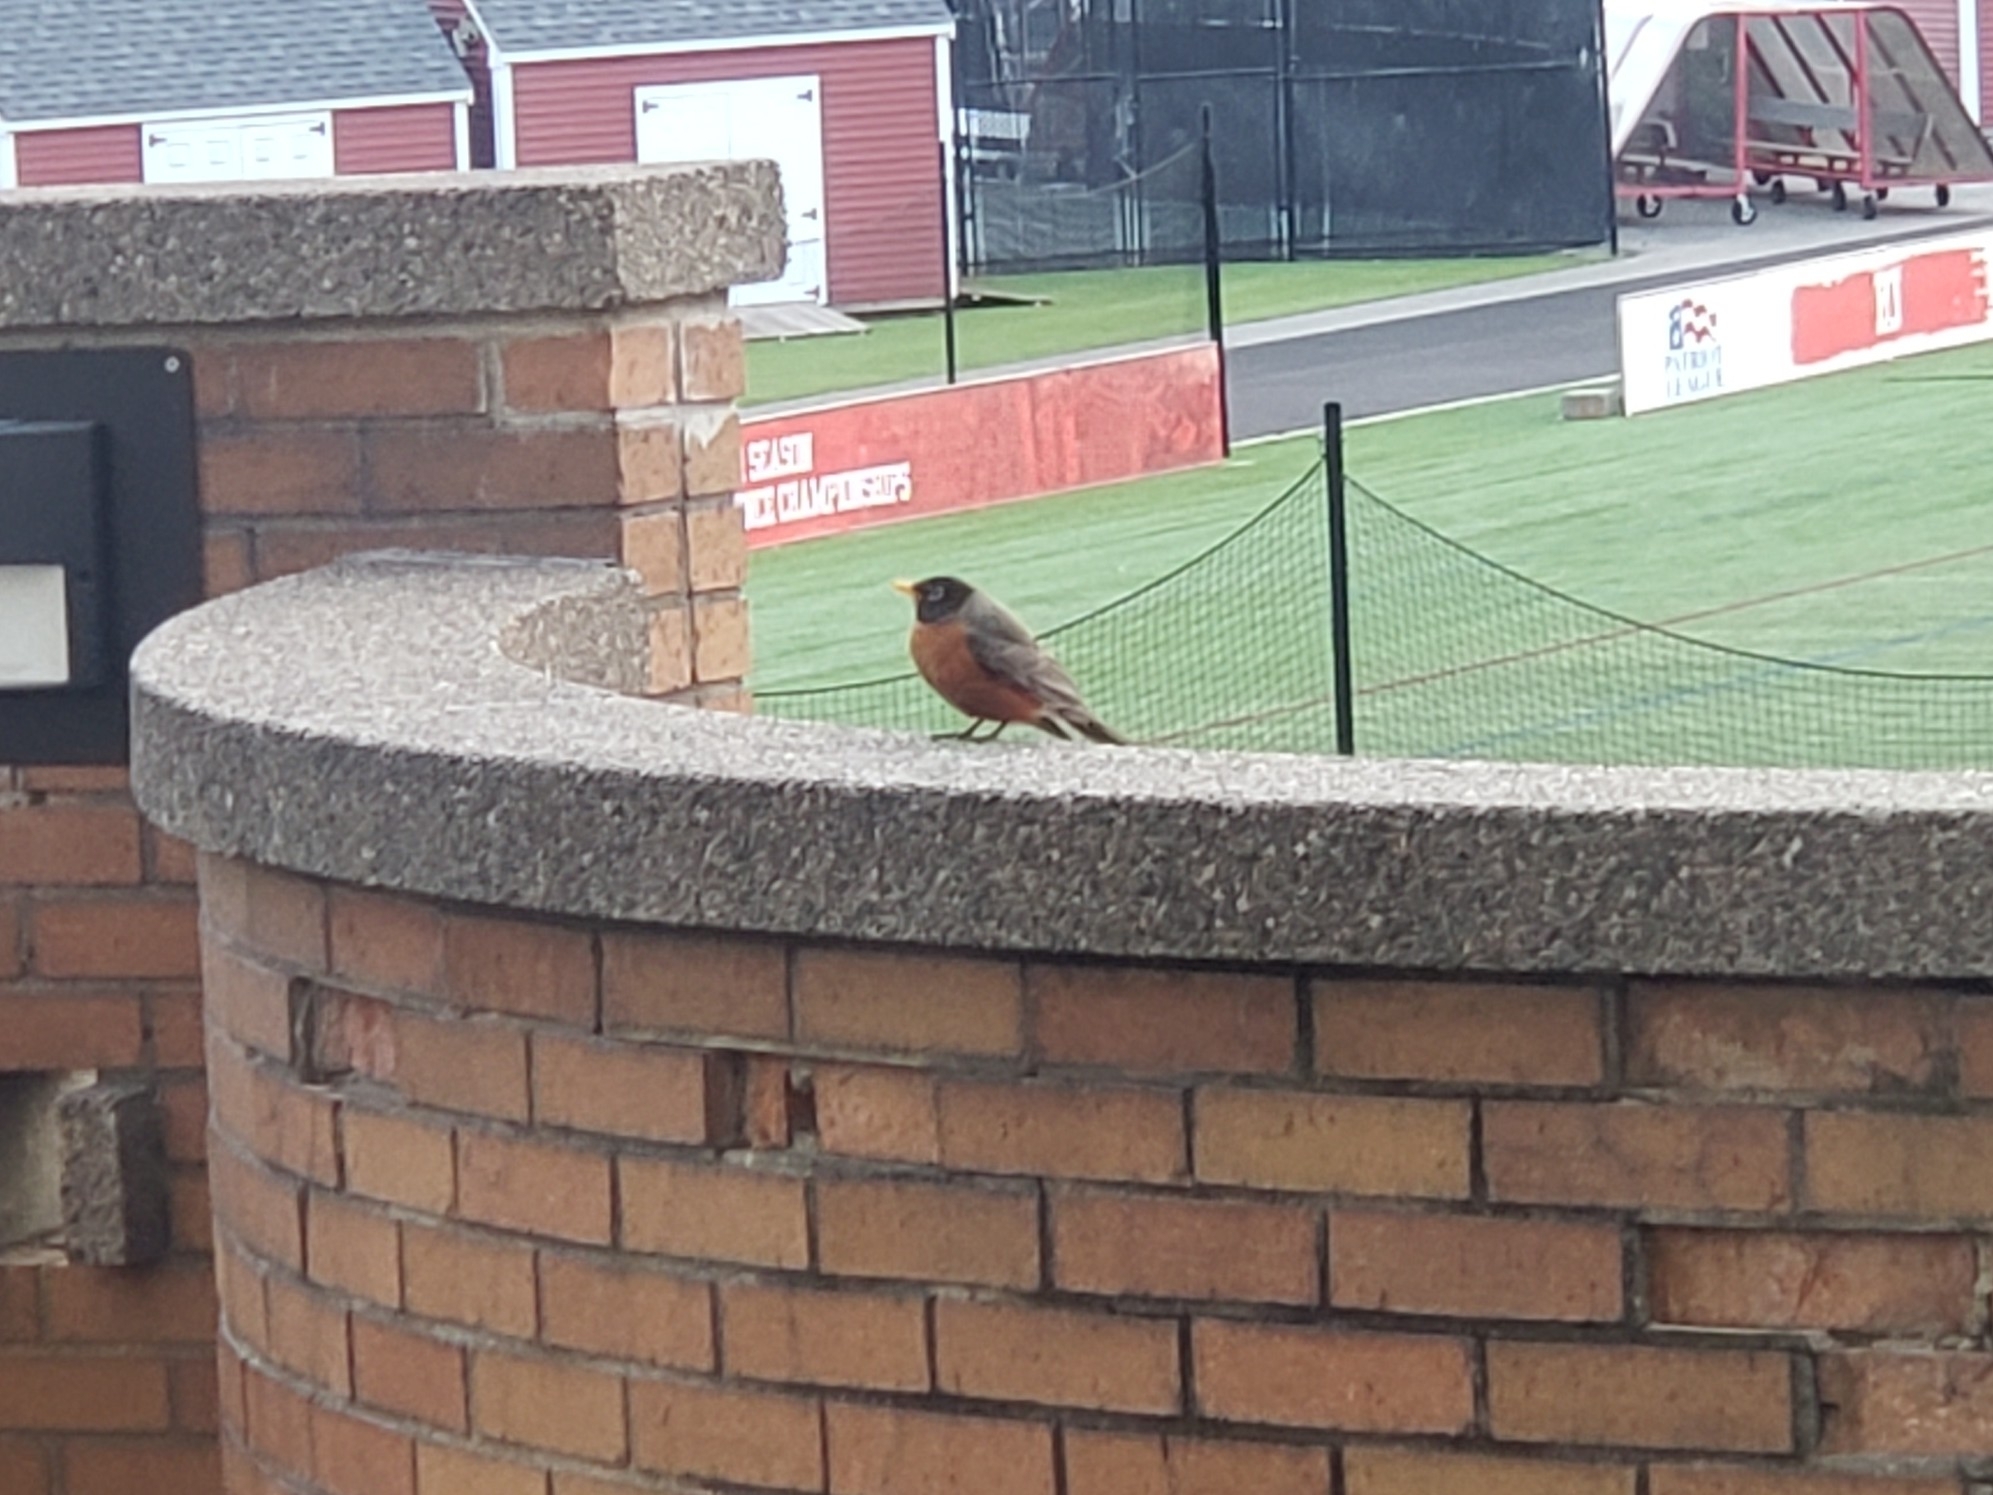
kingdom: Animalia
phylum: Chordata
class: Aves
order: Passeriformes
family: Turdidae
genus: Turdus
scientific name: Turdus migratorius
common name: American robin
